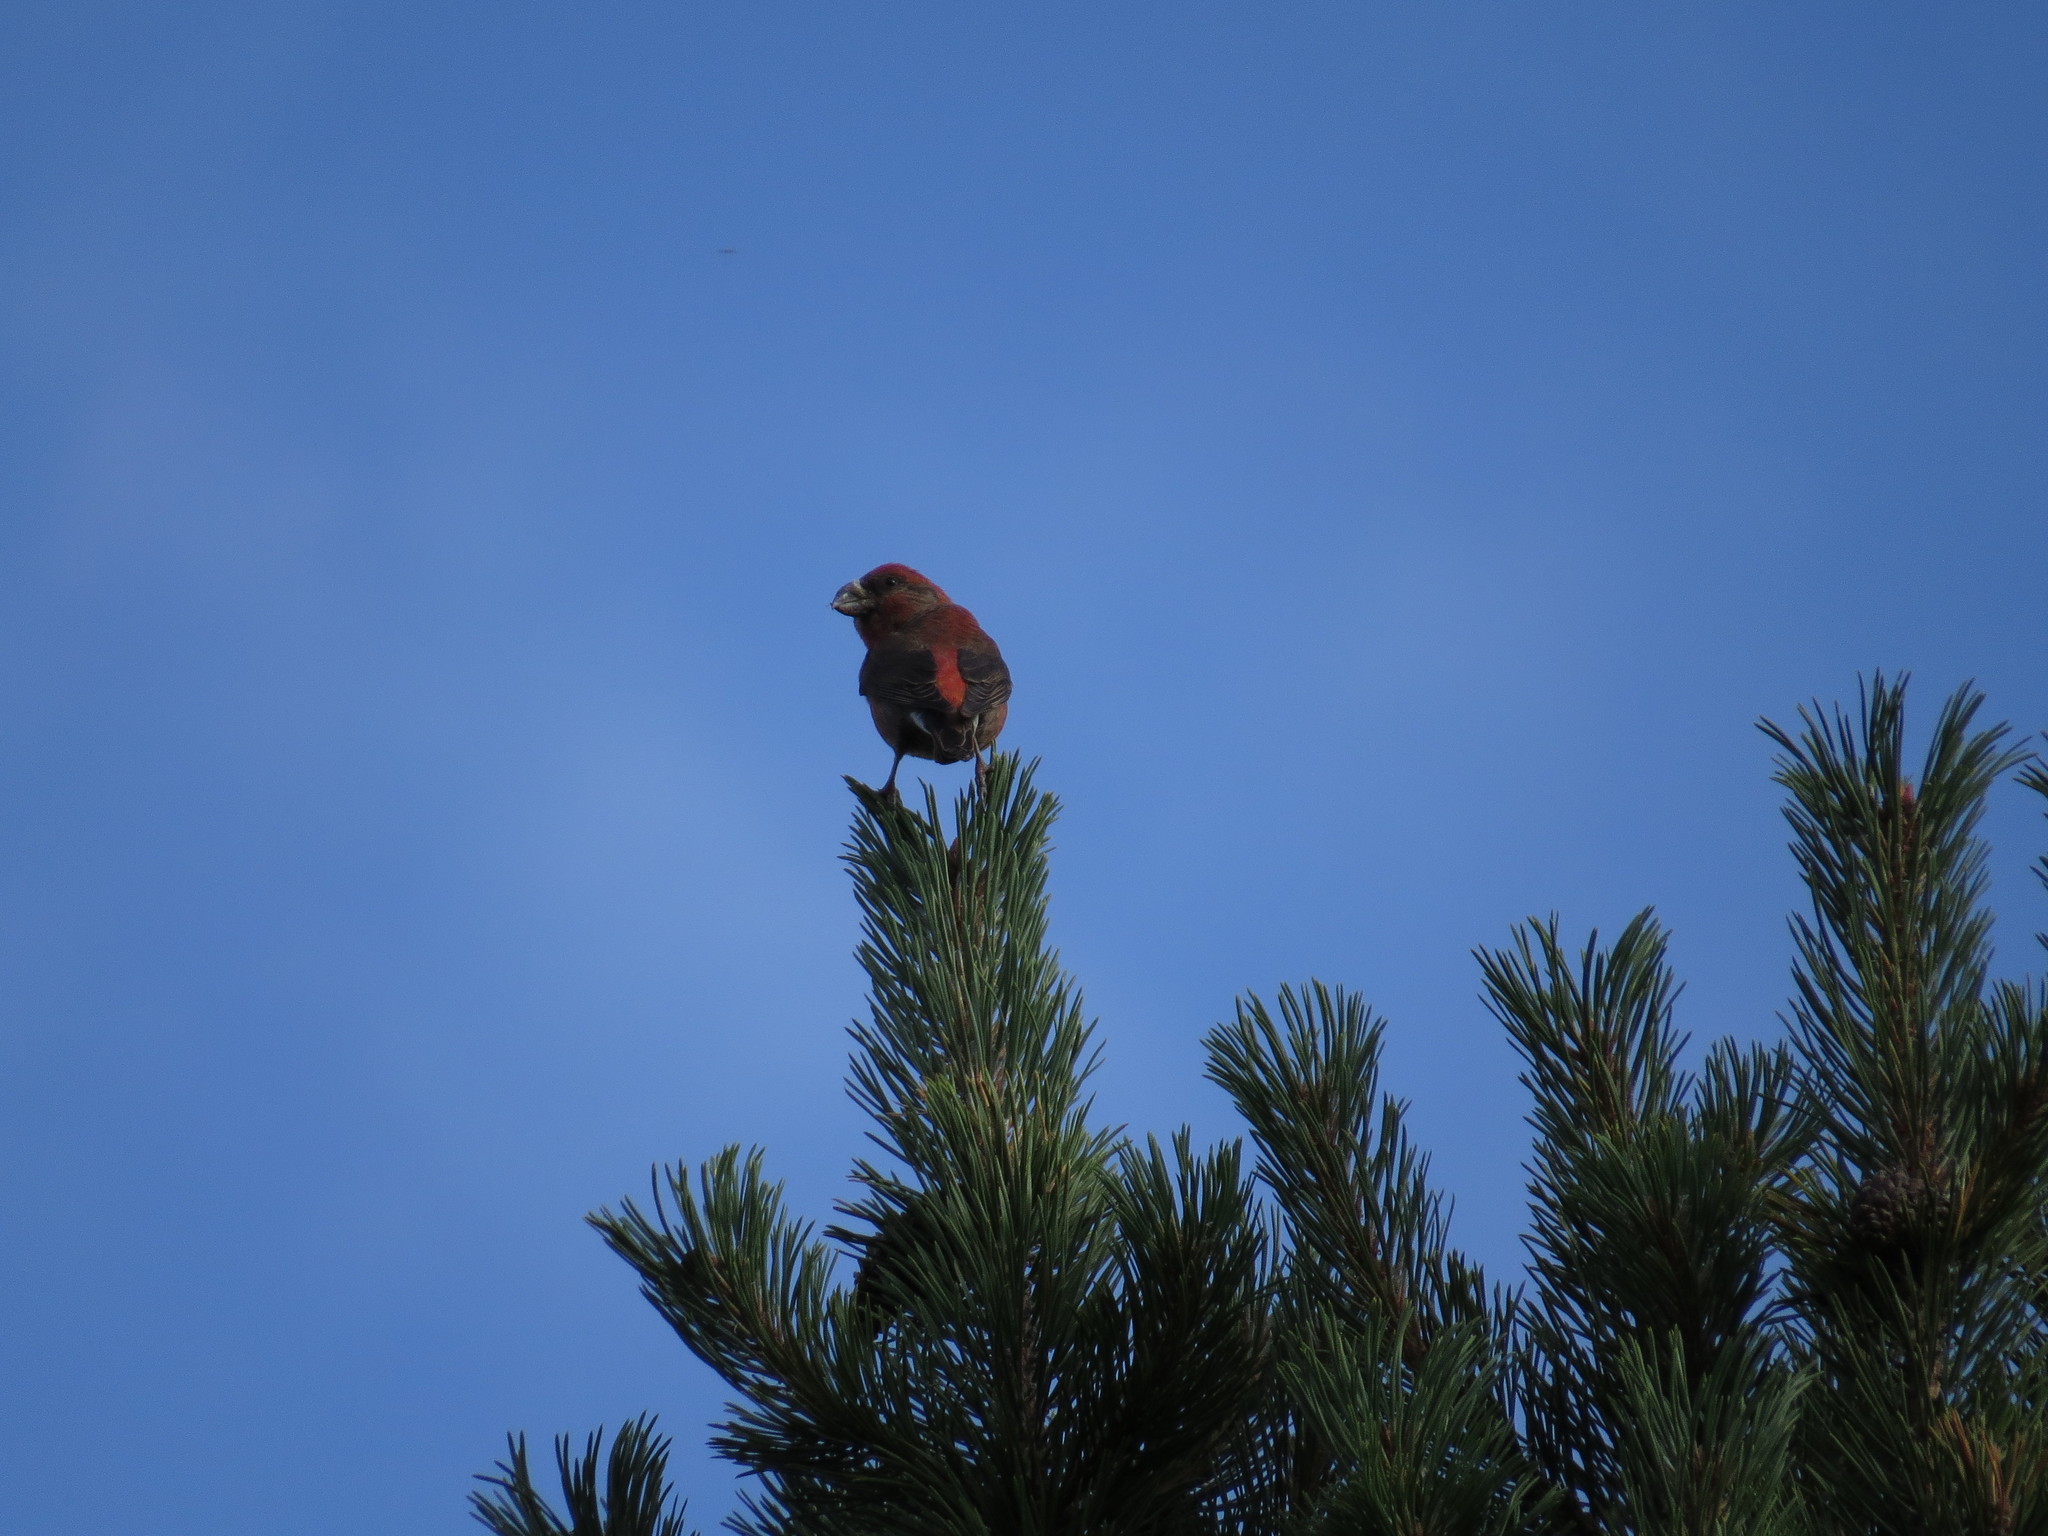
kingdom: Animalia
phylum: Chordata
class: Aves
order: Passeriformes
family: Fringillidae
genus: Loxia
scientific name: Loxia curvirostra
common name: Red crossbill
